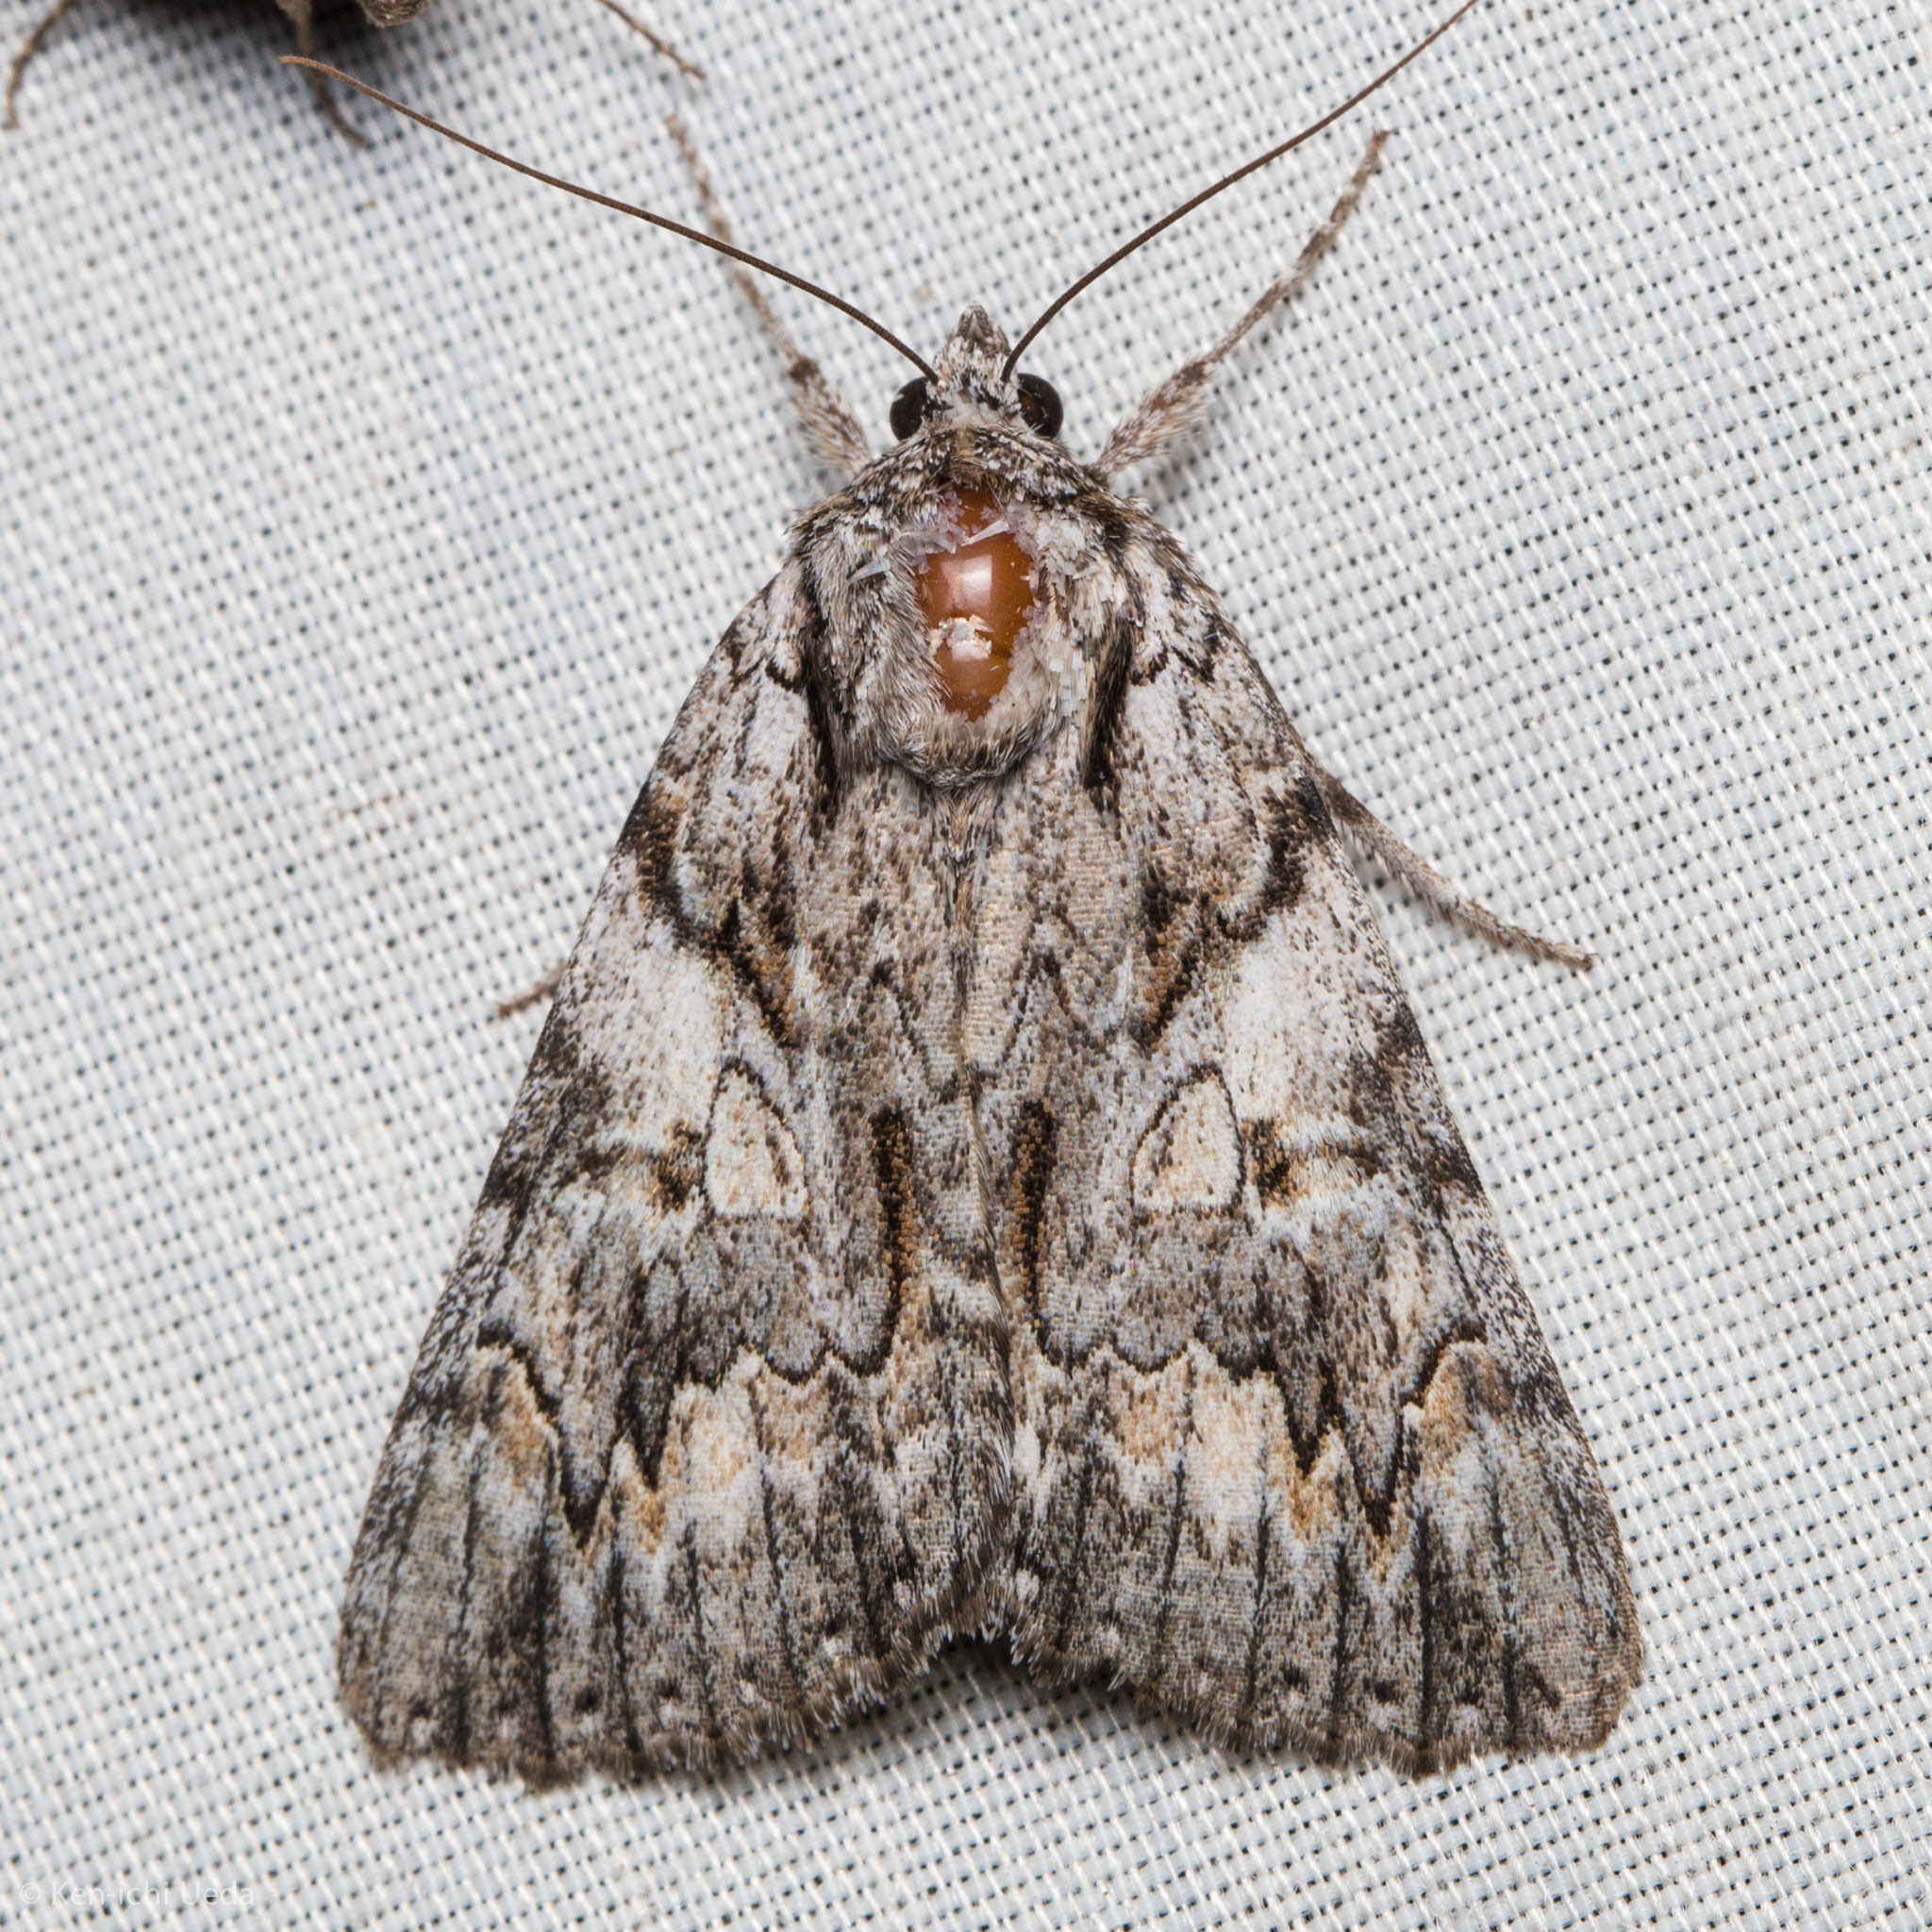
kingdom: Animalia
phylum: Arthropoda
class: Insecta
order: Lepidoptera
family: Erebidae
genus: Catocala
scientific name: Catocala verrilliana
